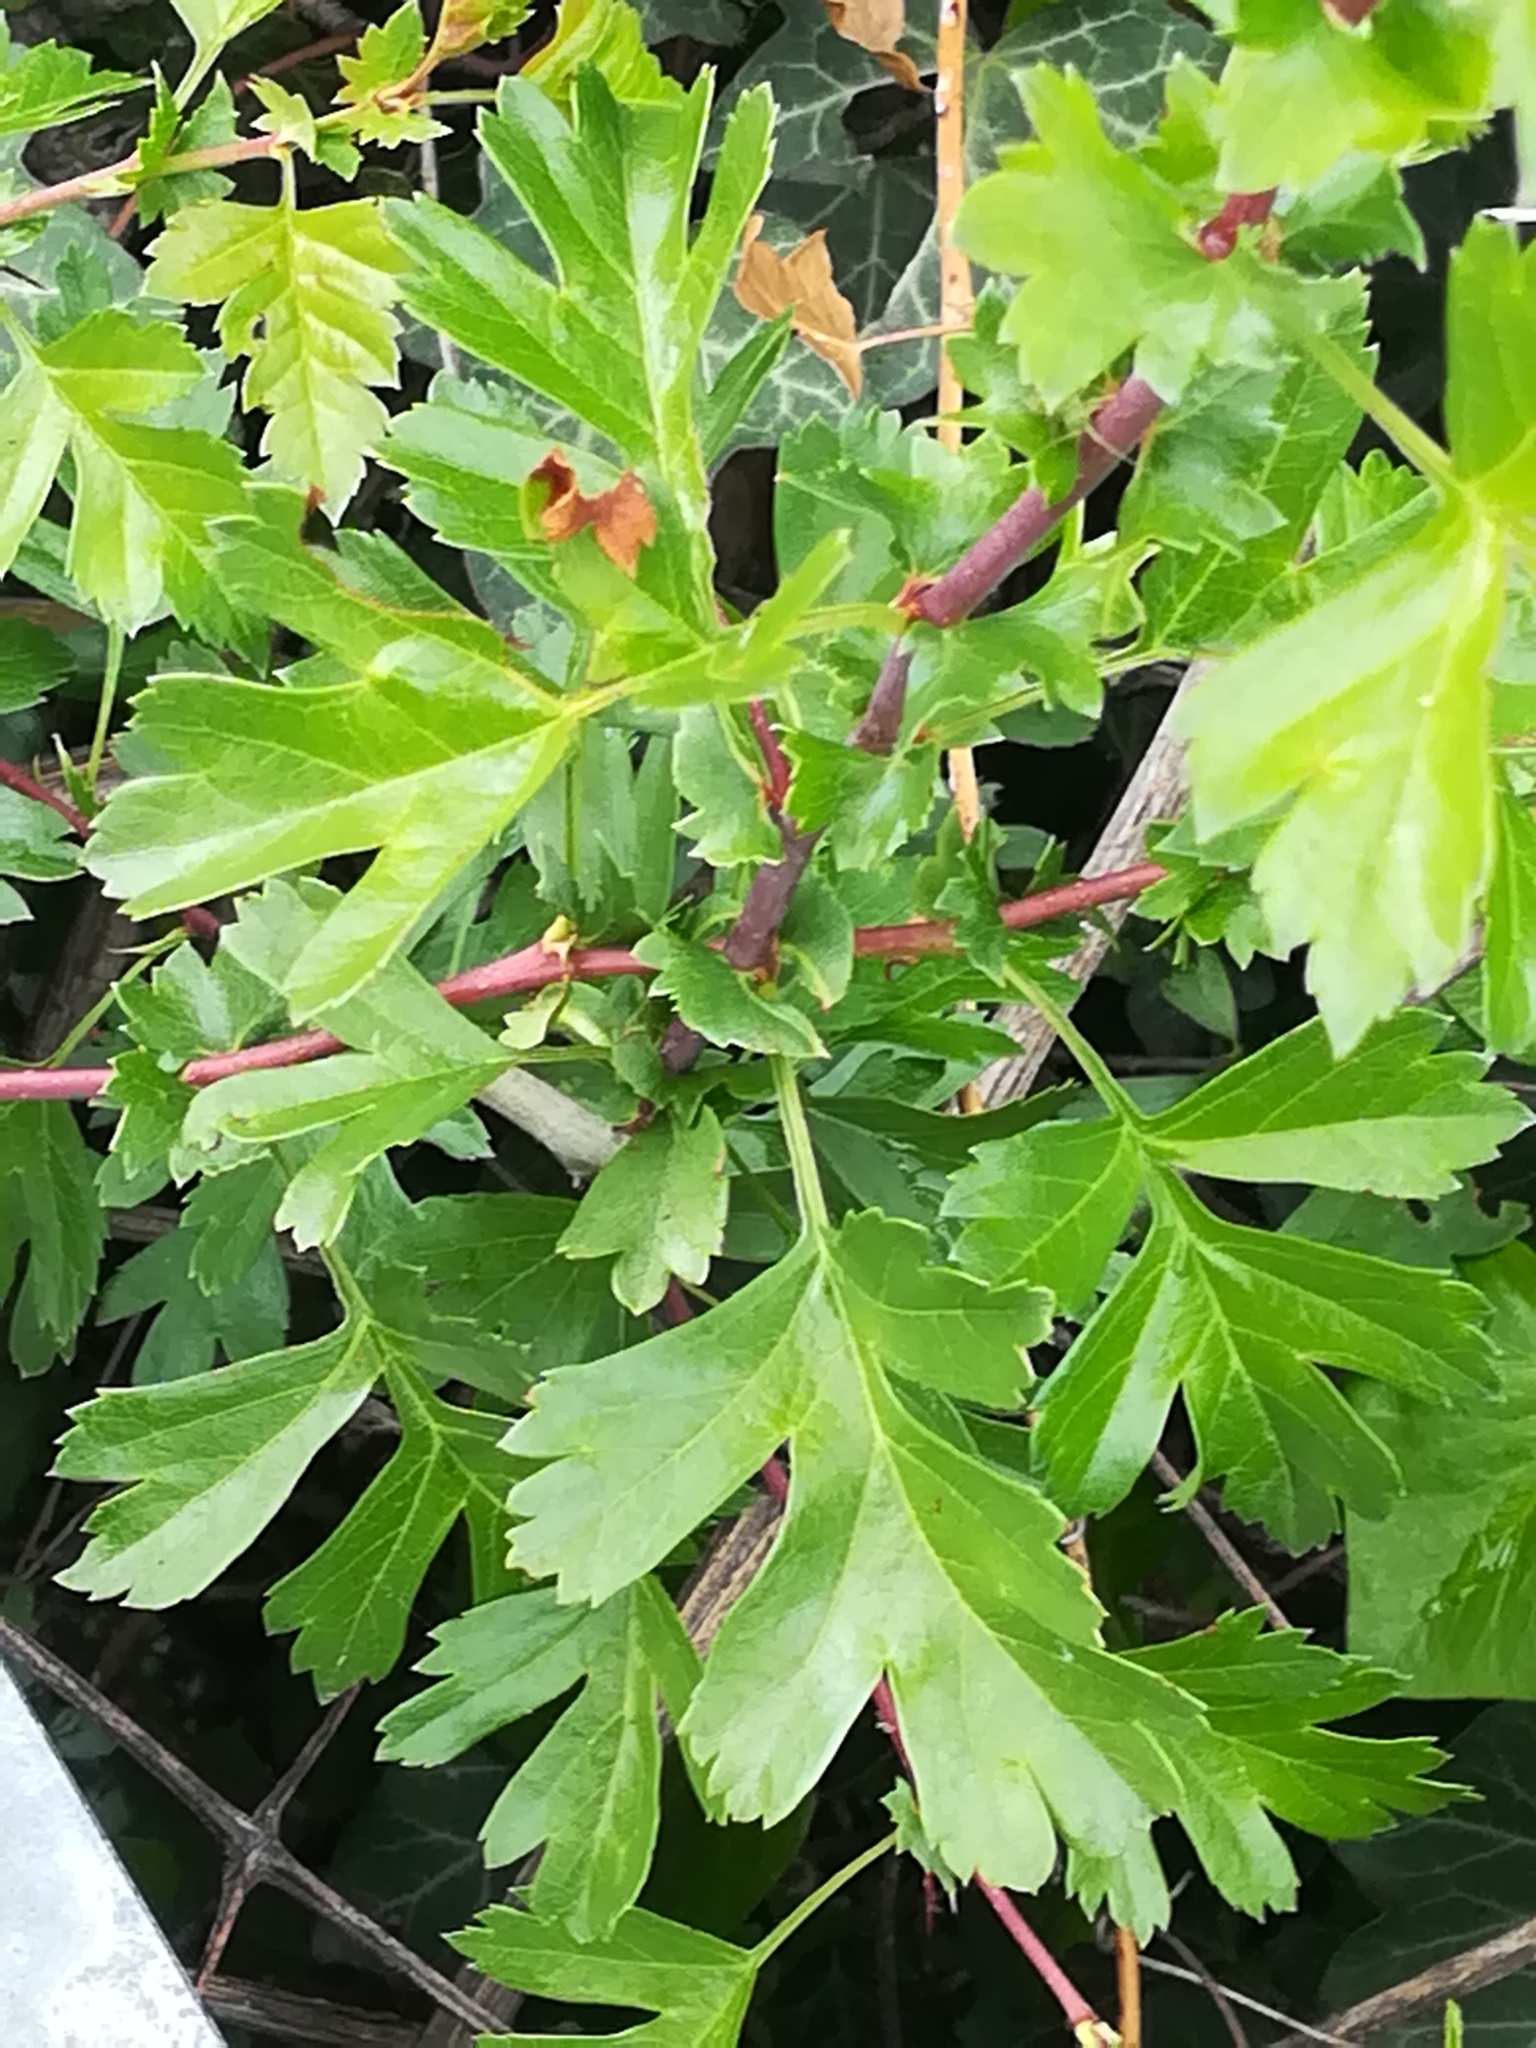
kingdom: Plantae
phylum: Tracheophyta
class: Magnoliopsida
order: Rosales
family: Rosaceae
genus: Crataegus
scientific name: Crataegus monogyna
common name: Hawthorn
